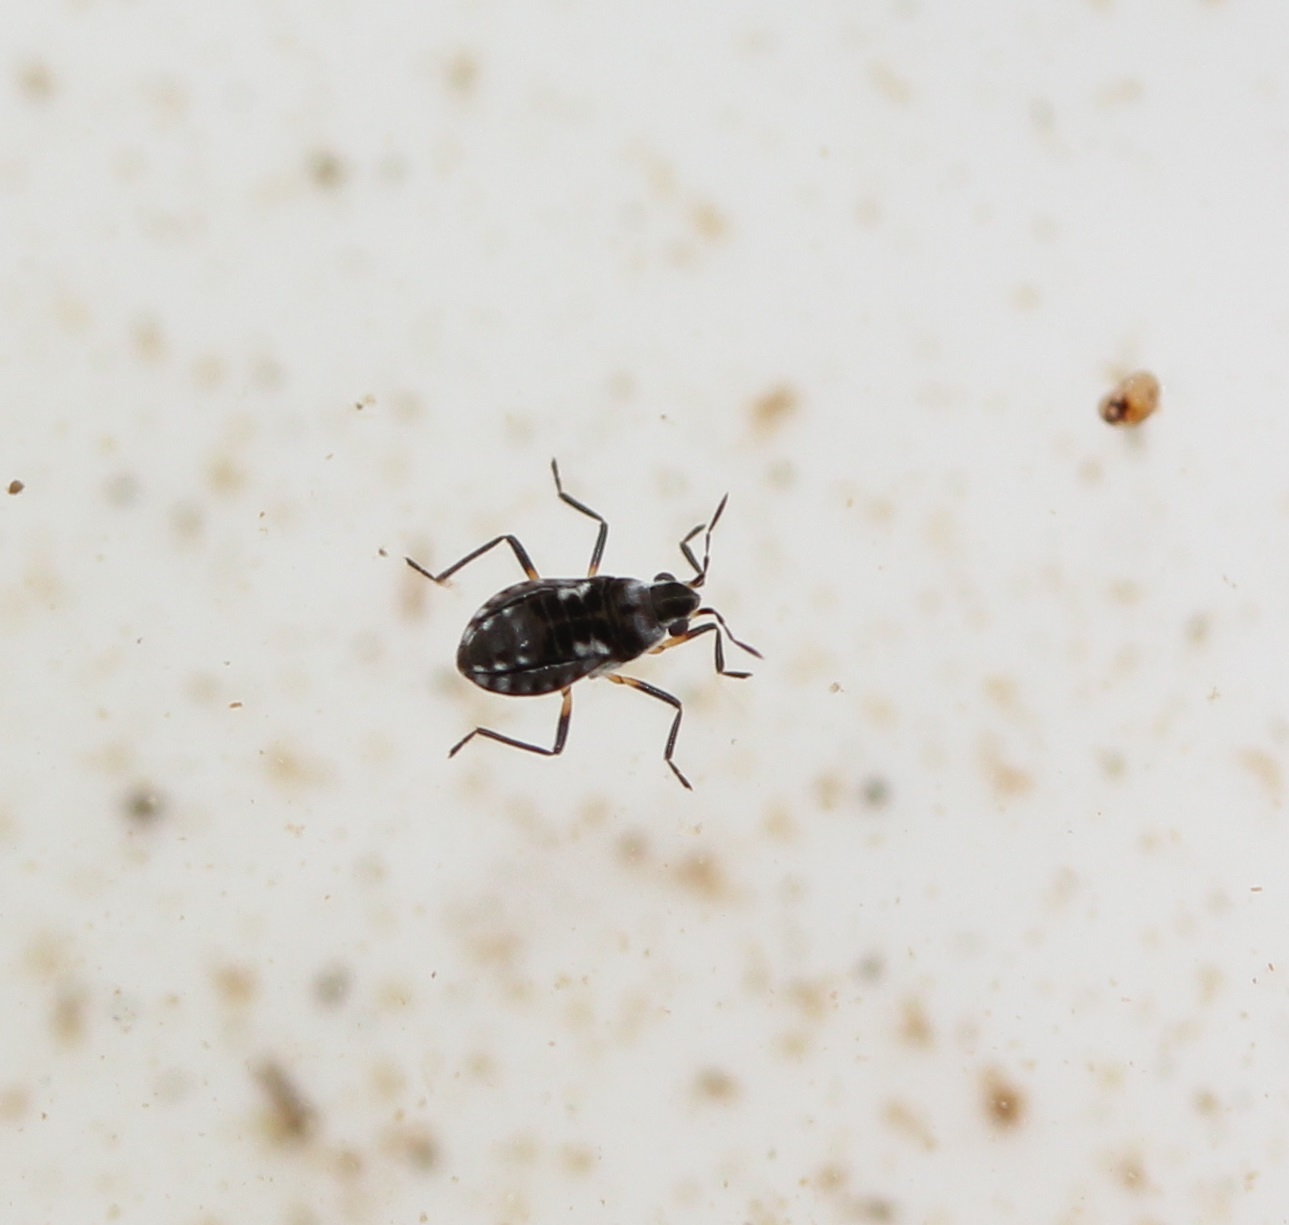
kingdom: Animalia
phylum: Arthropoda
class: Insecta
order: Hemiptera
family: Veliidae
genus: Microvelia
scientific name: Microvelia
